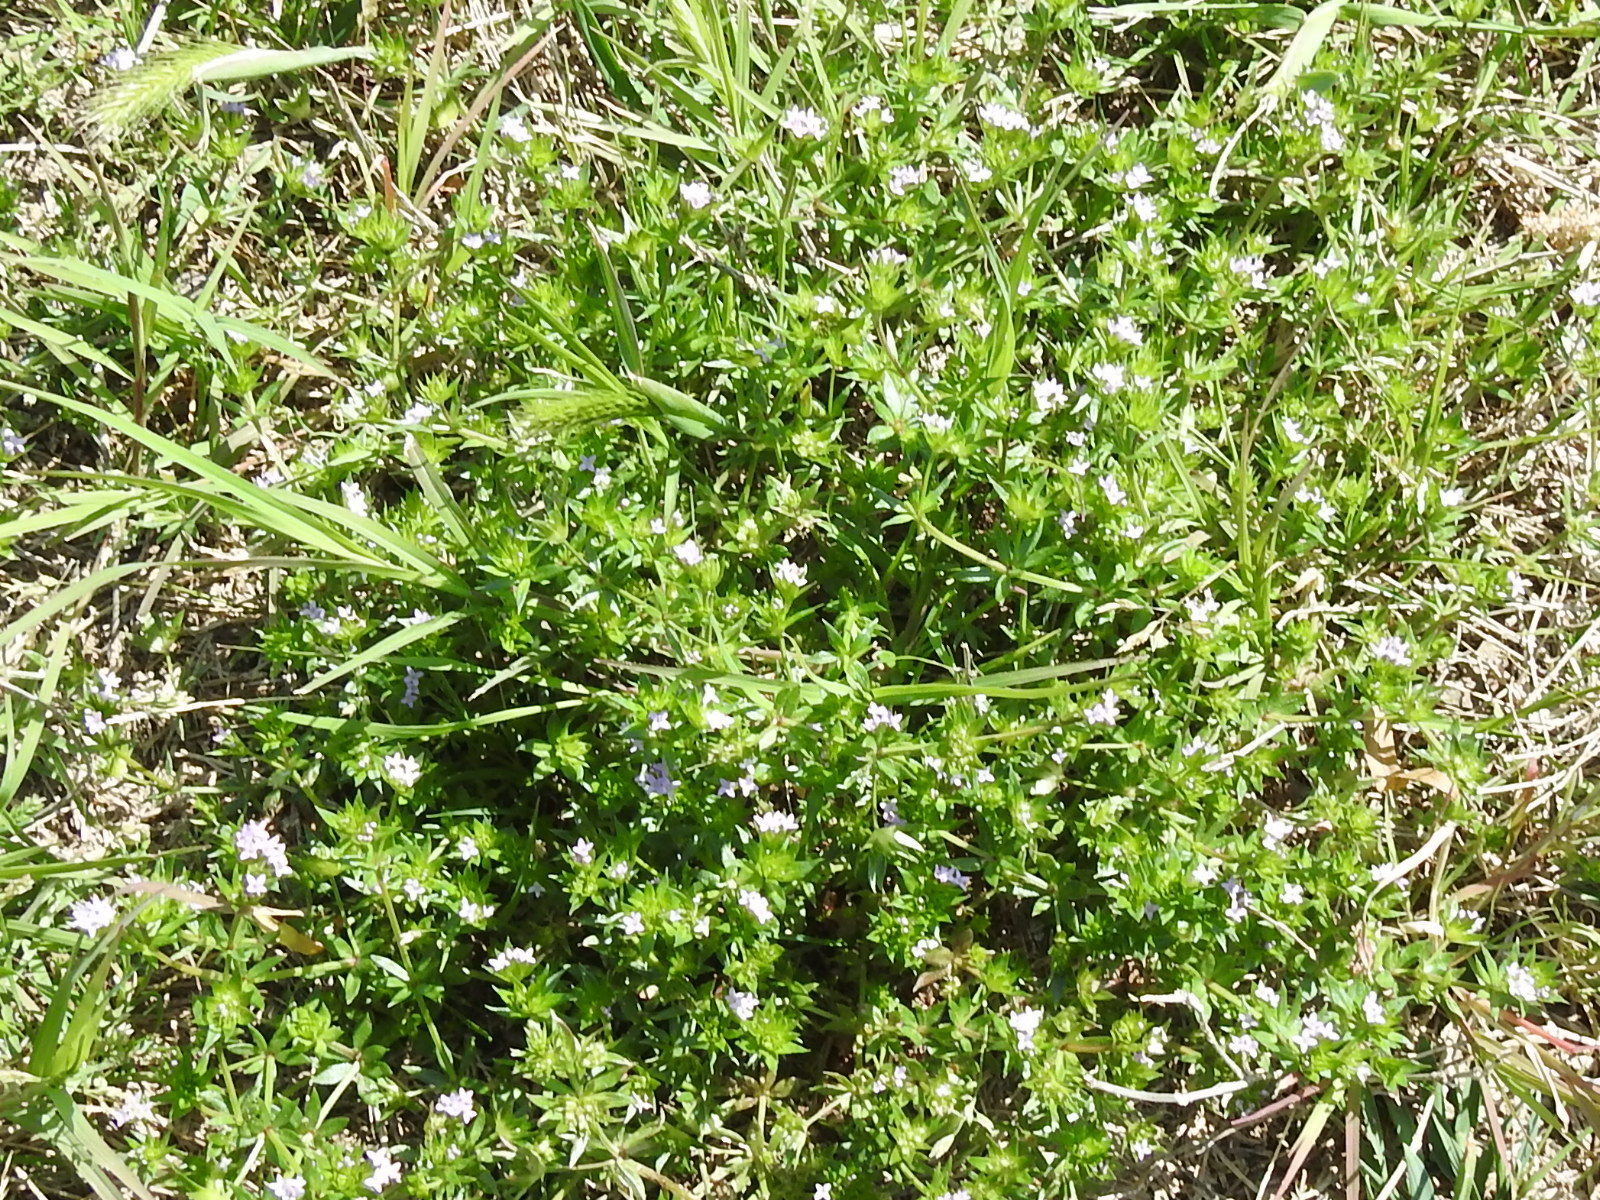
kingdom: Plantae
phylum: Tracheophyta
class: Magnoliopsida
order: Gentianales
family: Rubiaceae
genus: Sherardia
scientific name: Sherardia arvensis
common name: Field madder
